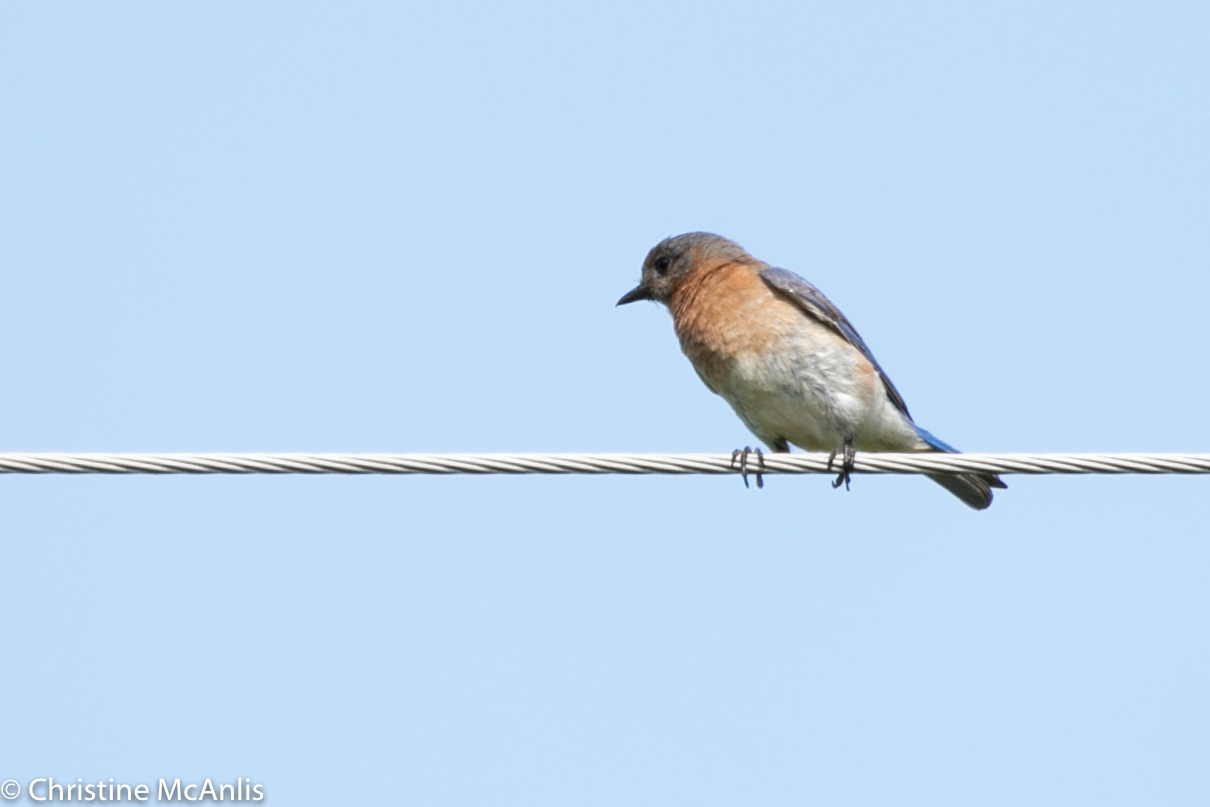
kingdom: Animalia
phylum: Chordata
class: Aves
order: Passeriformes
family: Turdidae
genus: Sialia
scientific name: Sialia sialis
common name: Eastern bluebird
